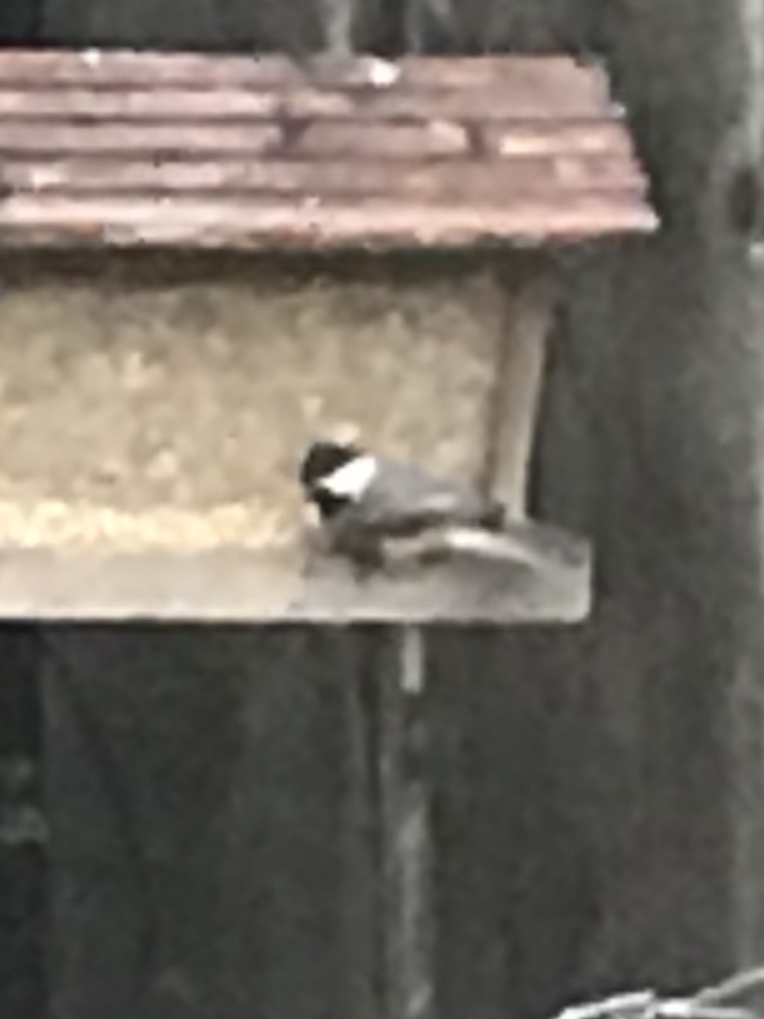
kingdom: Animalia
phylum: Chordata
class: Aves
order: Passeriformes
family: Paridae
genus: Poecile
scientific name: Poecile carolinensis
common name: Carolina chickadee
